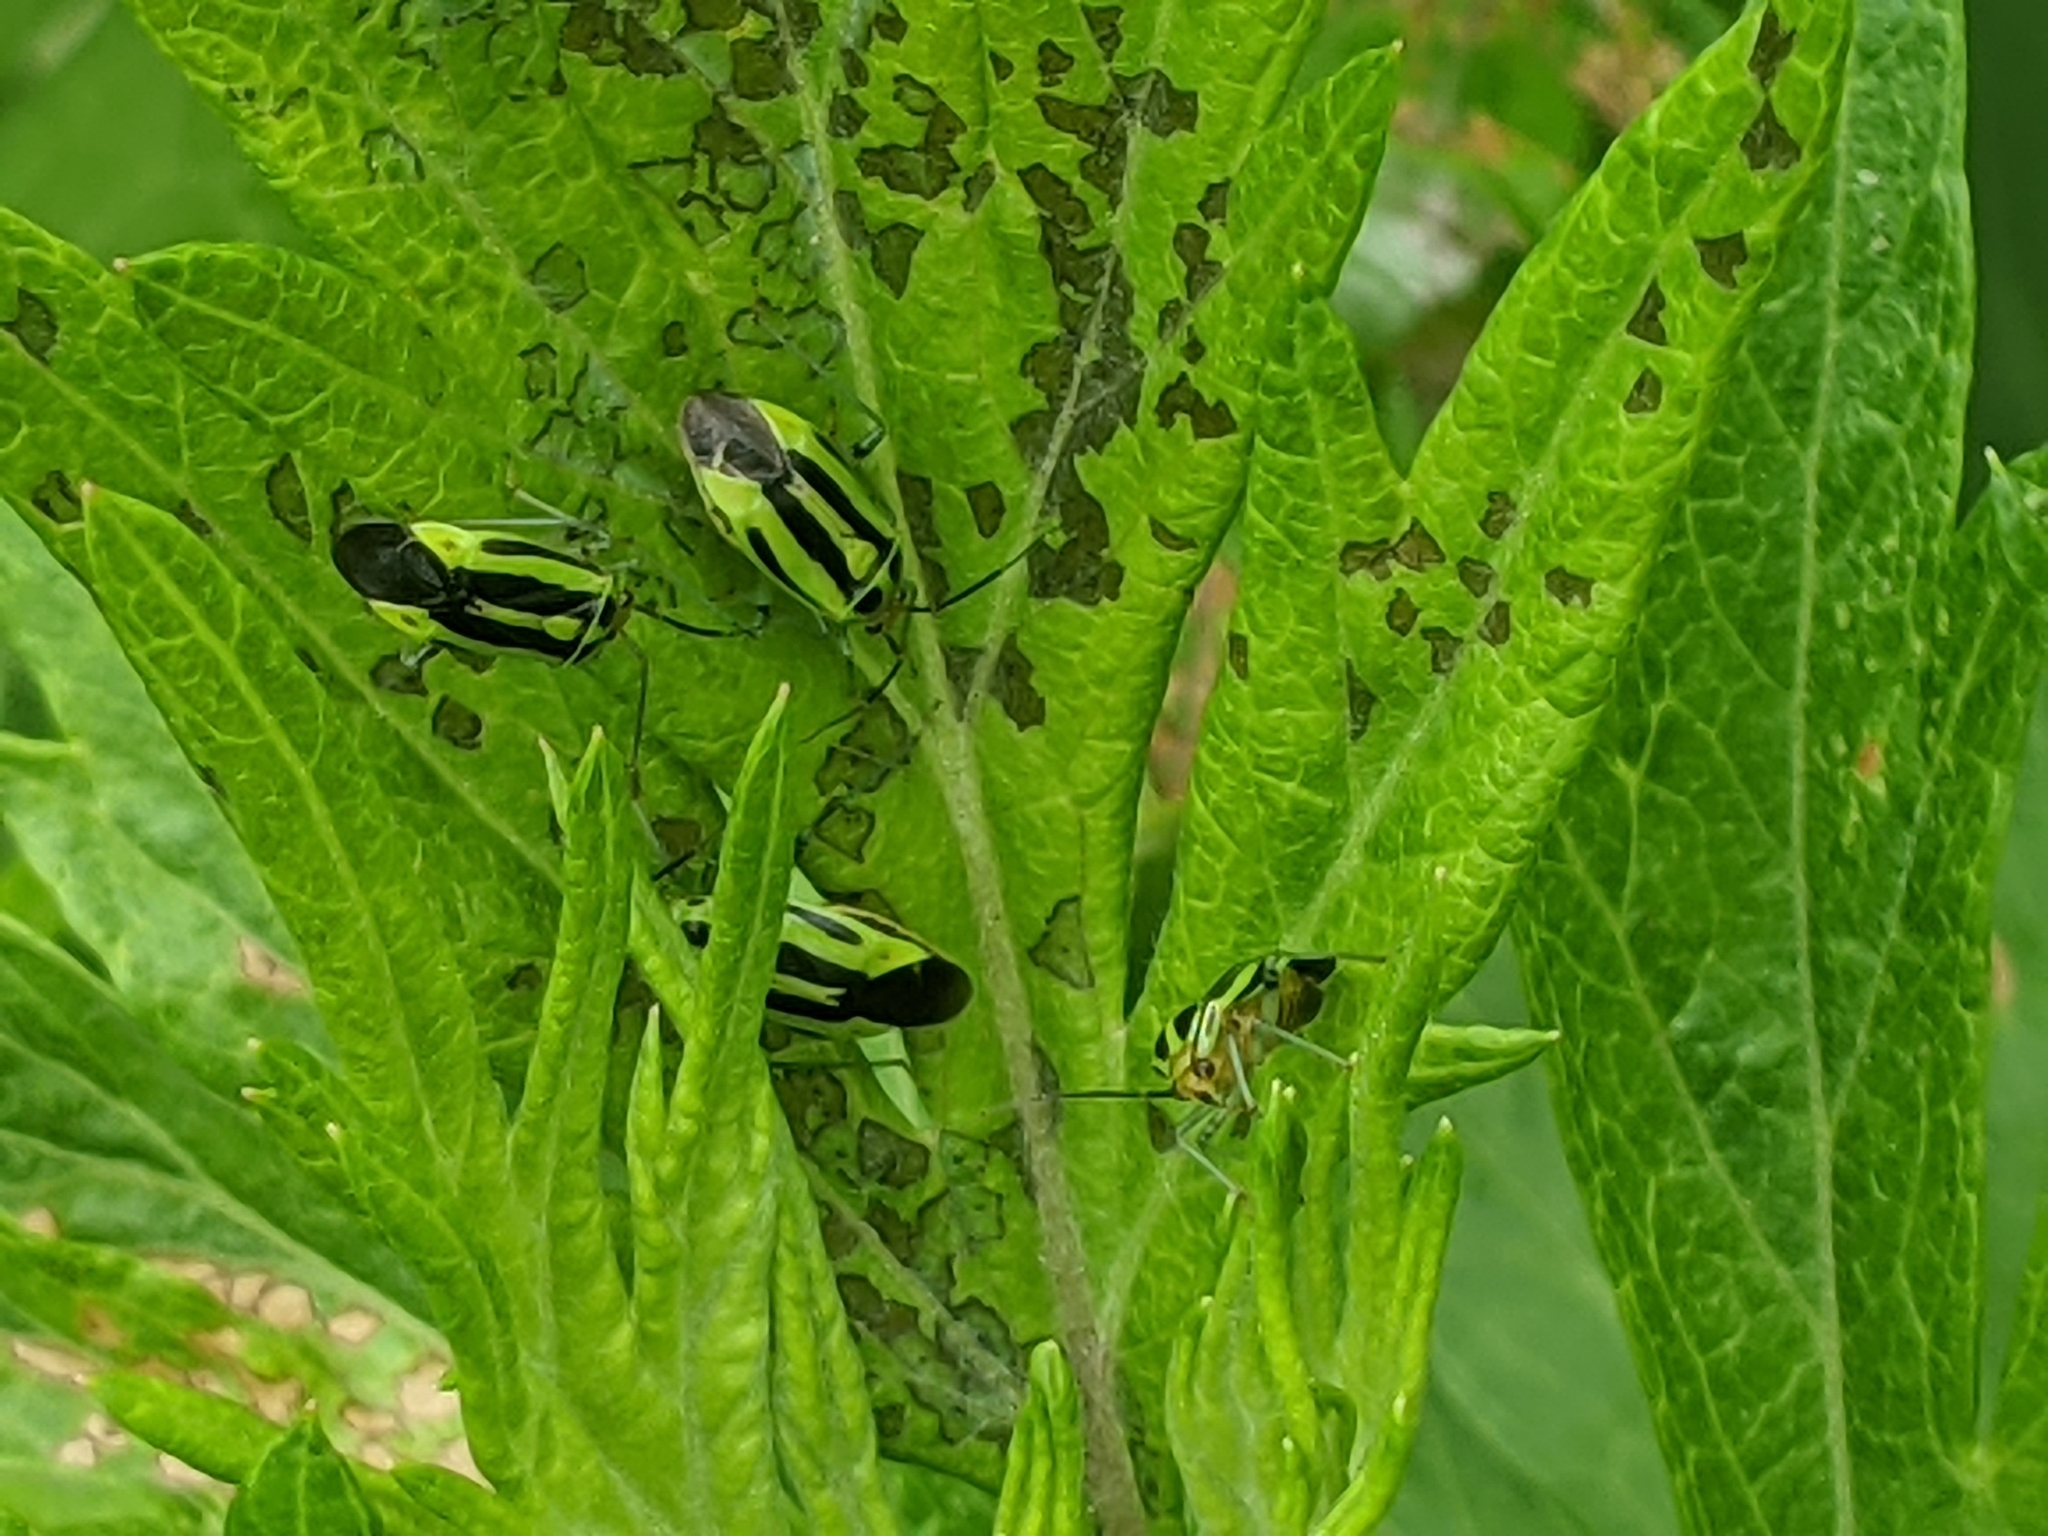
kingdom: Animalia
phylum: Arthropoda
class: Insecta
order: Hemiptera
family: Miridae
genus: Poecilocapsus
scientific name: Poecilocapsus lineatus
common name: Four-lined plant bug
